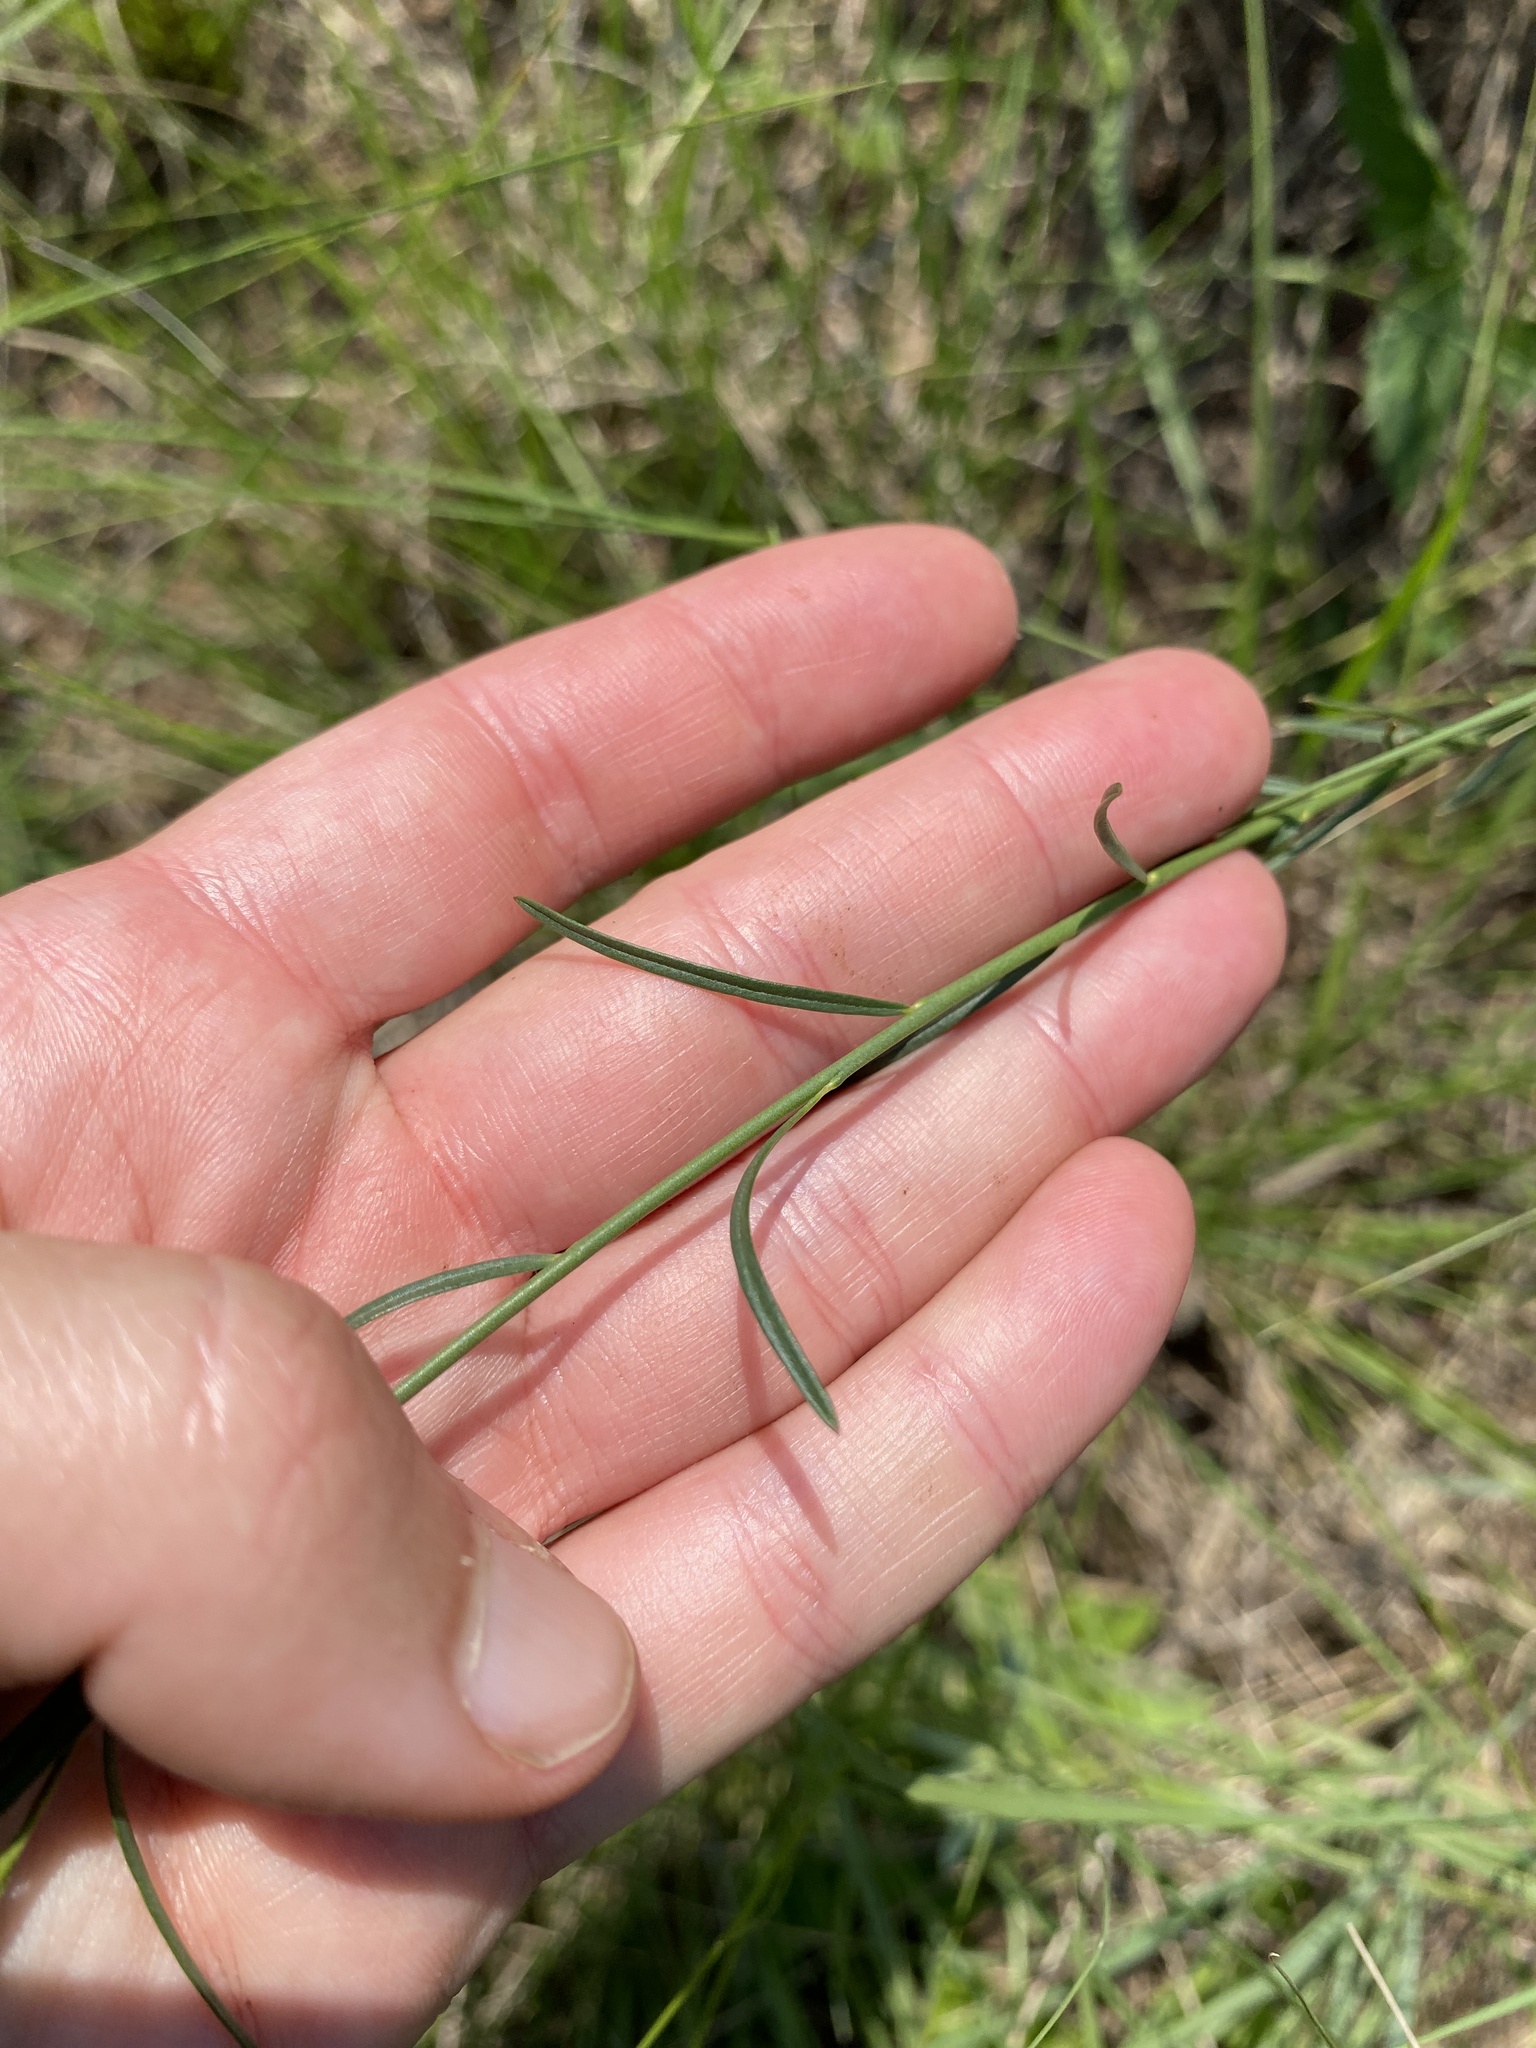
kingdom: Plantae
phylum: Tracheophyta
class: Magnoliopsida
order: Fabales
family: Polygalaceae
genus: Polygala
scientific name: Polygala hottentotta
